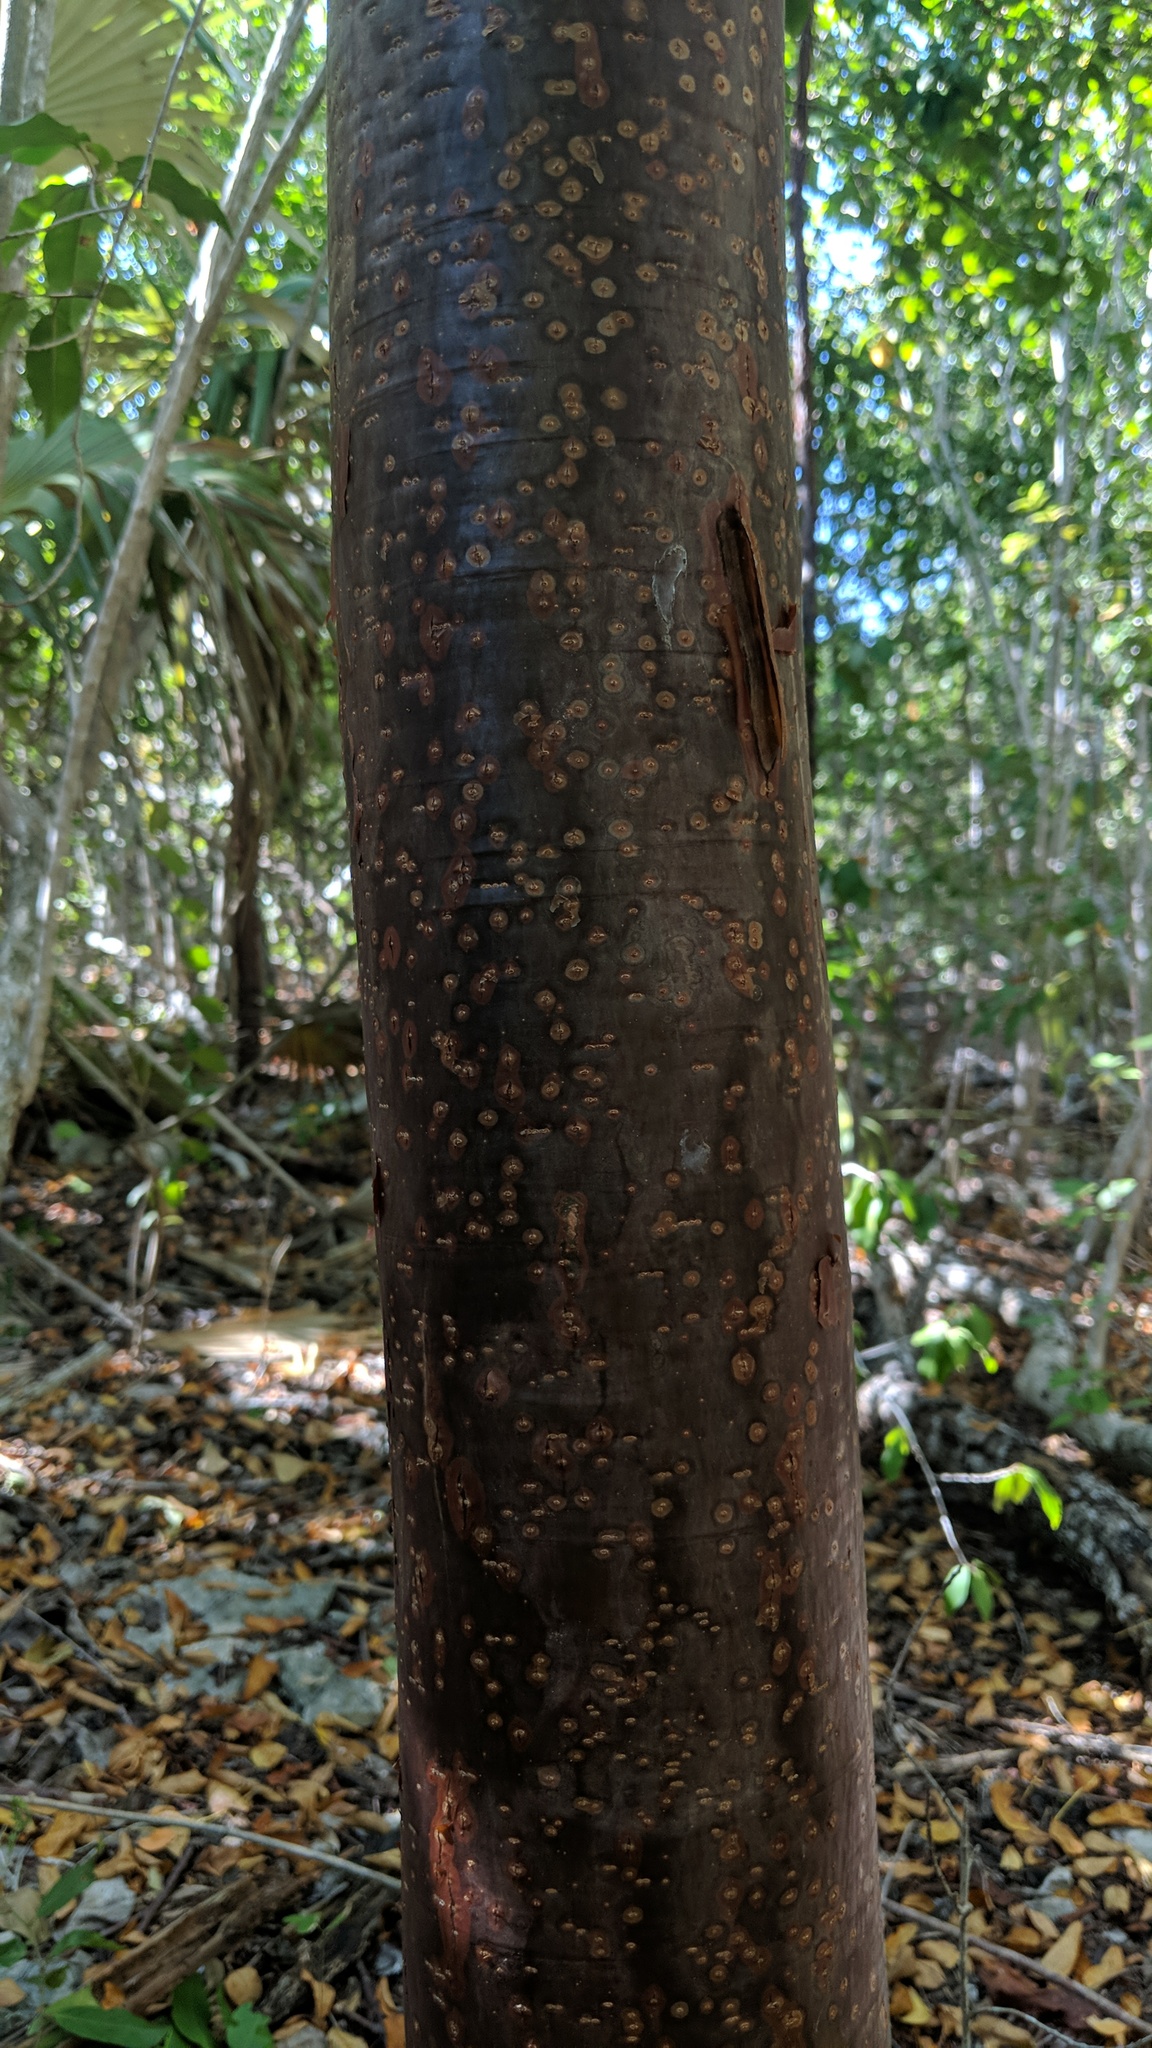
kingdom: Plantae
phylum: Tracheophyta
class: Magnoliopsida
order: Sapindales
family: Burseraceae
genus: Bursera
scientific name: Bursera simaruba
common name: Turpentine tree
